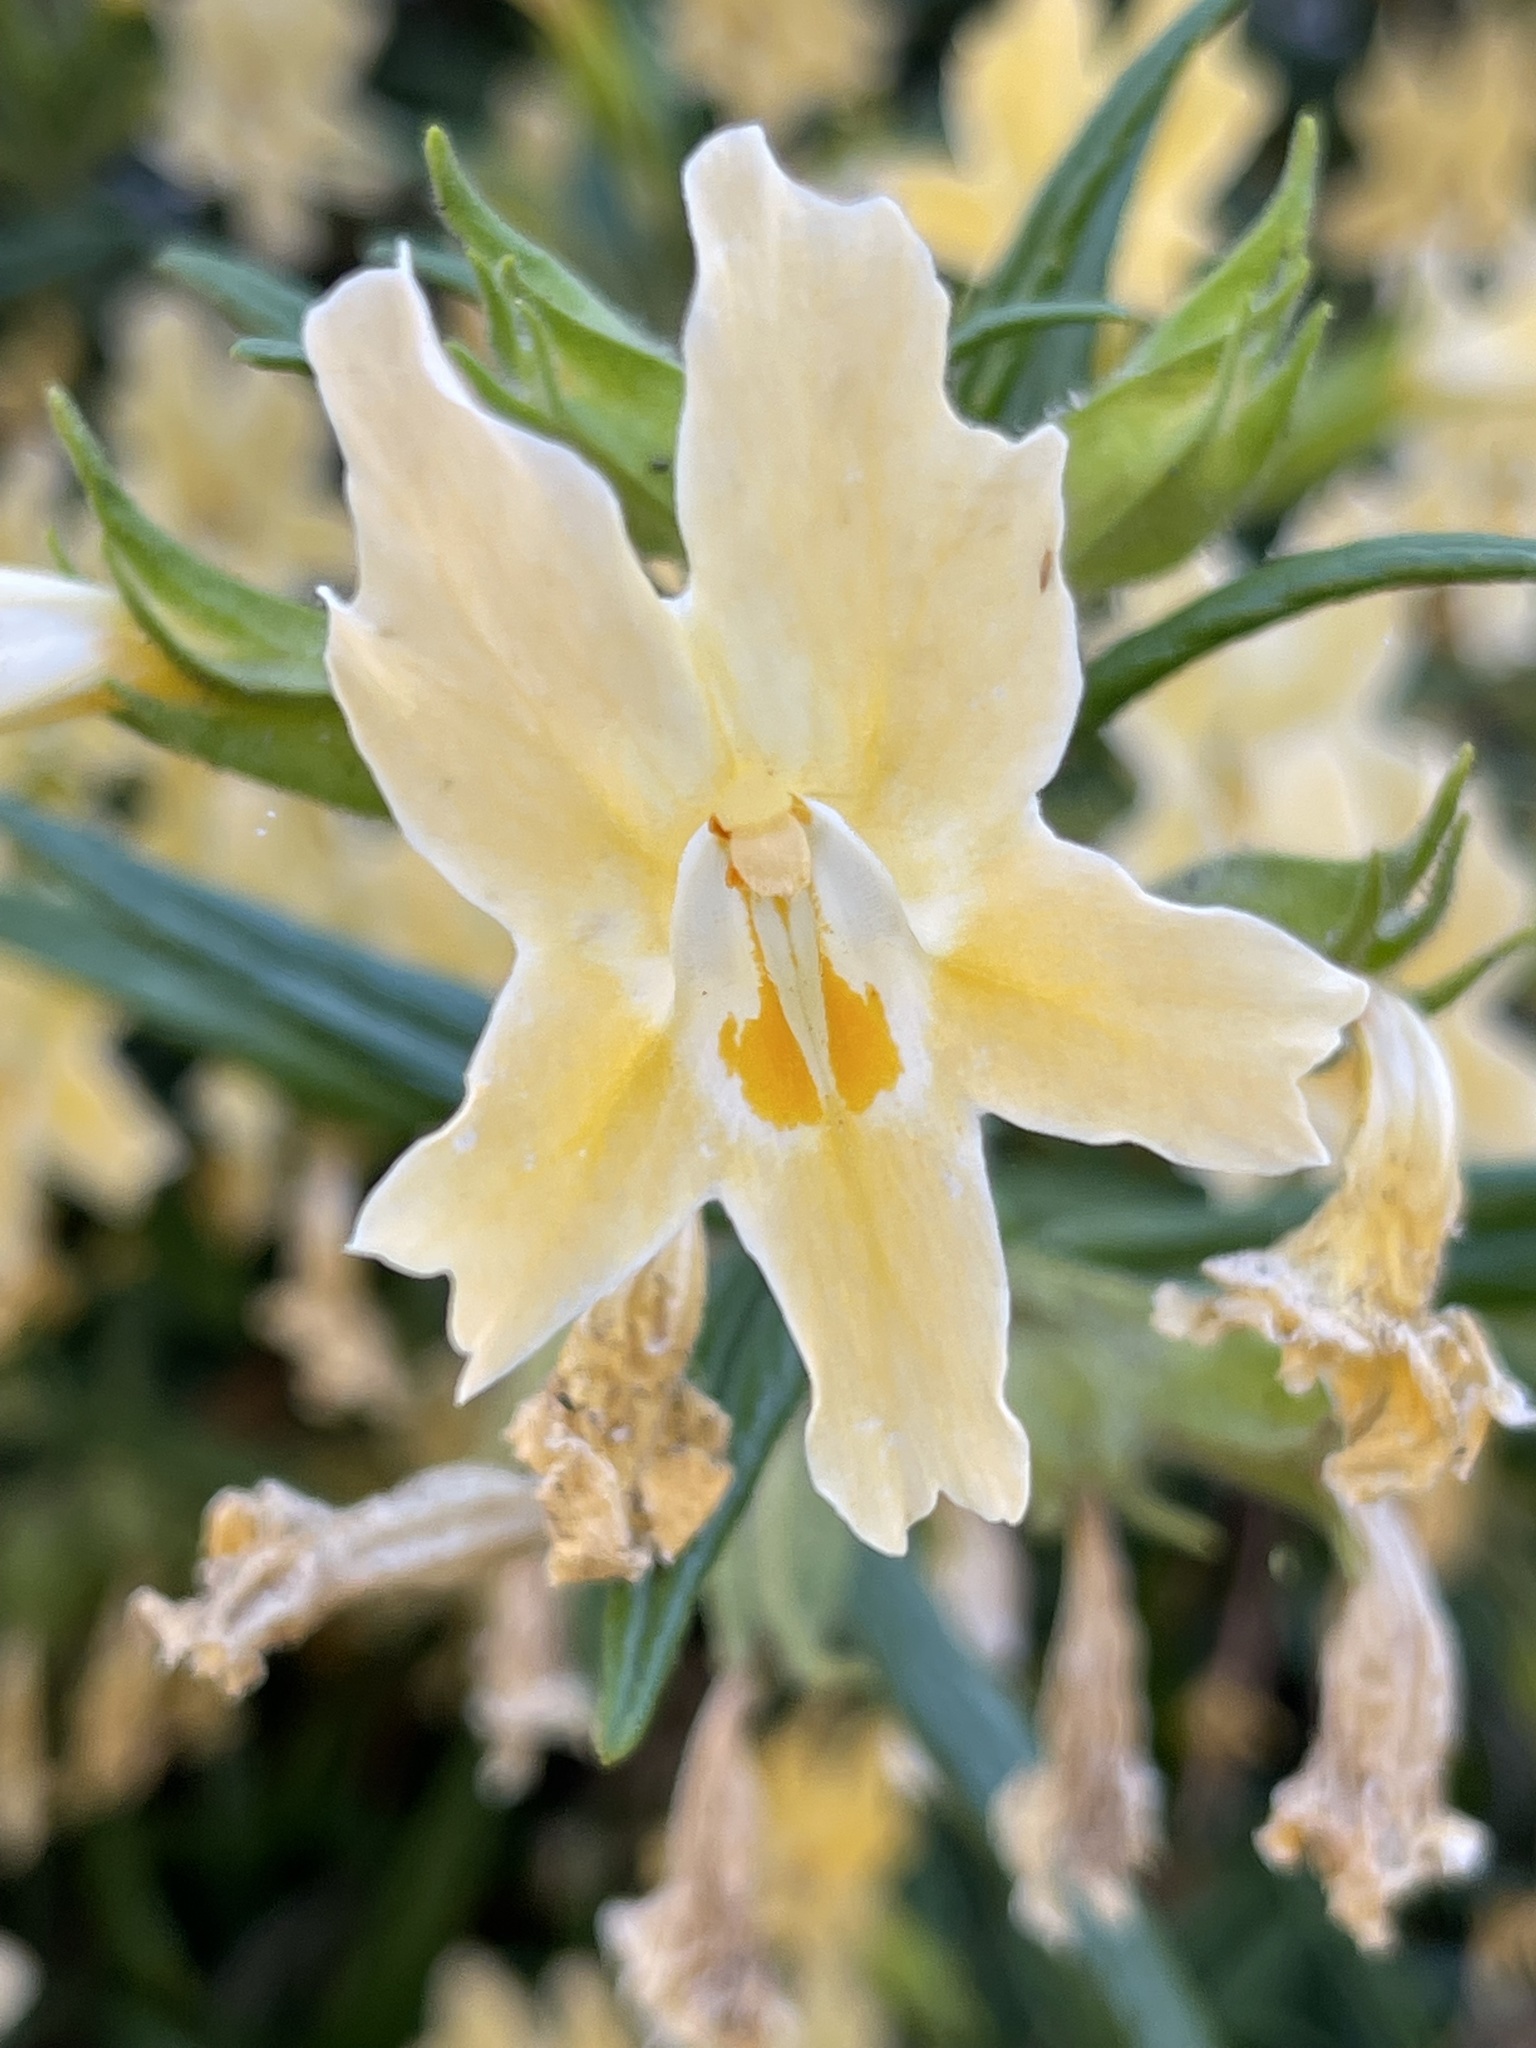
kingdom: Plantae
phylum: Tracheophyta
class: Magnoliopsida
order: Lamiales
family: Phrymaceae
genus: Diplacus
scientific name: Diplacus longiflorus
